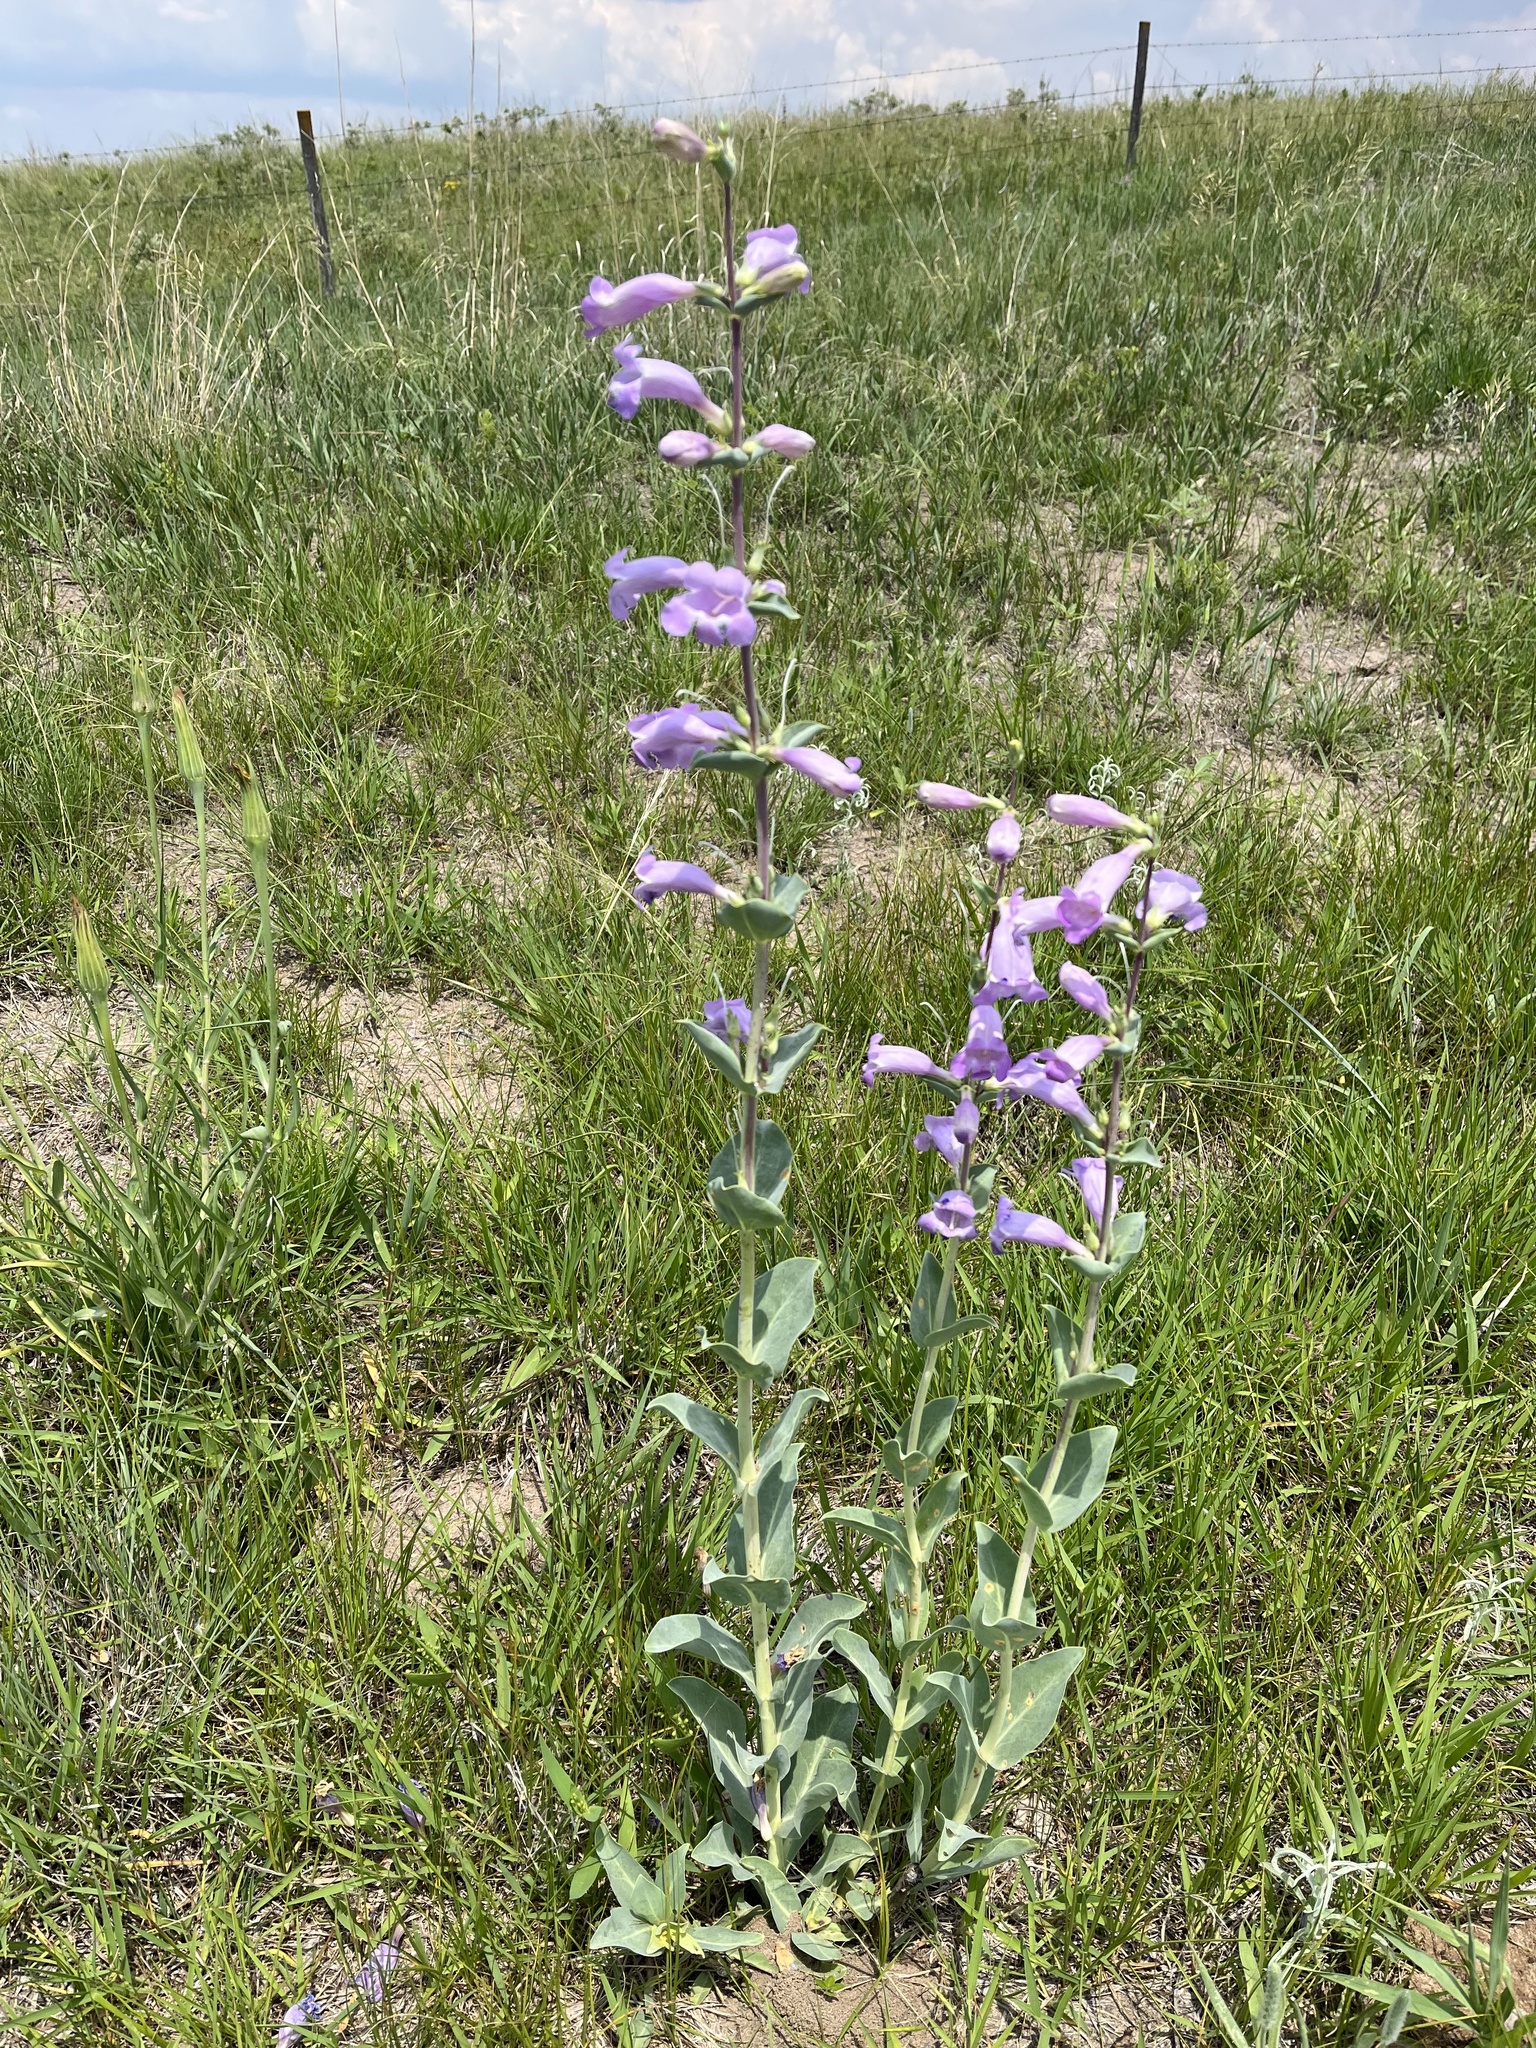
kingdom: Plantae
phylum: Tracheophyta
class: Magnoliopsida
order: Lamiales
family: Plantaginaceae
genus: Penstemon
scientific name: Penstemon
